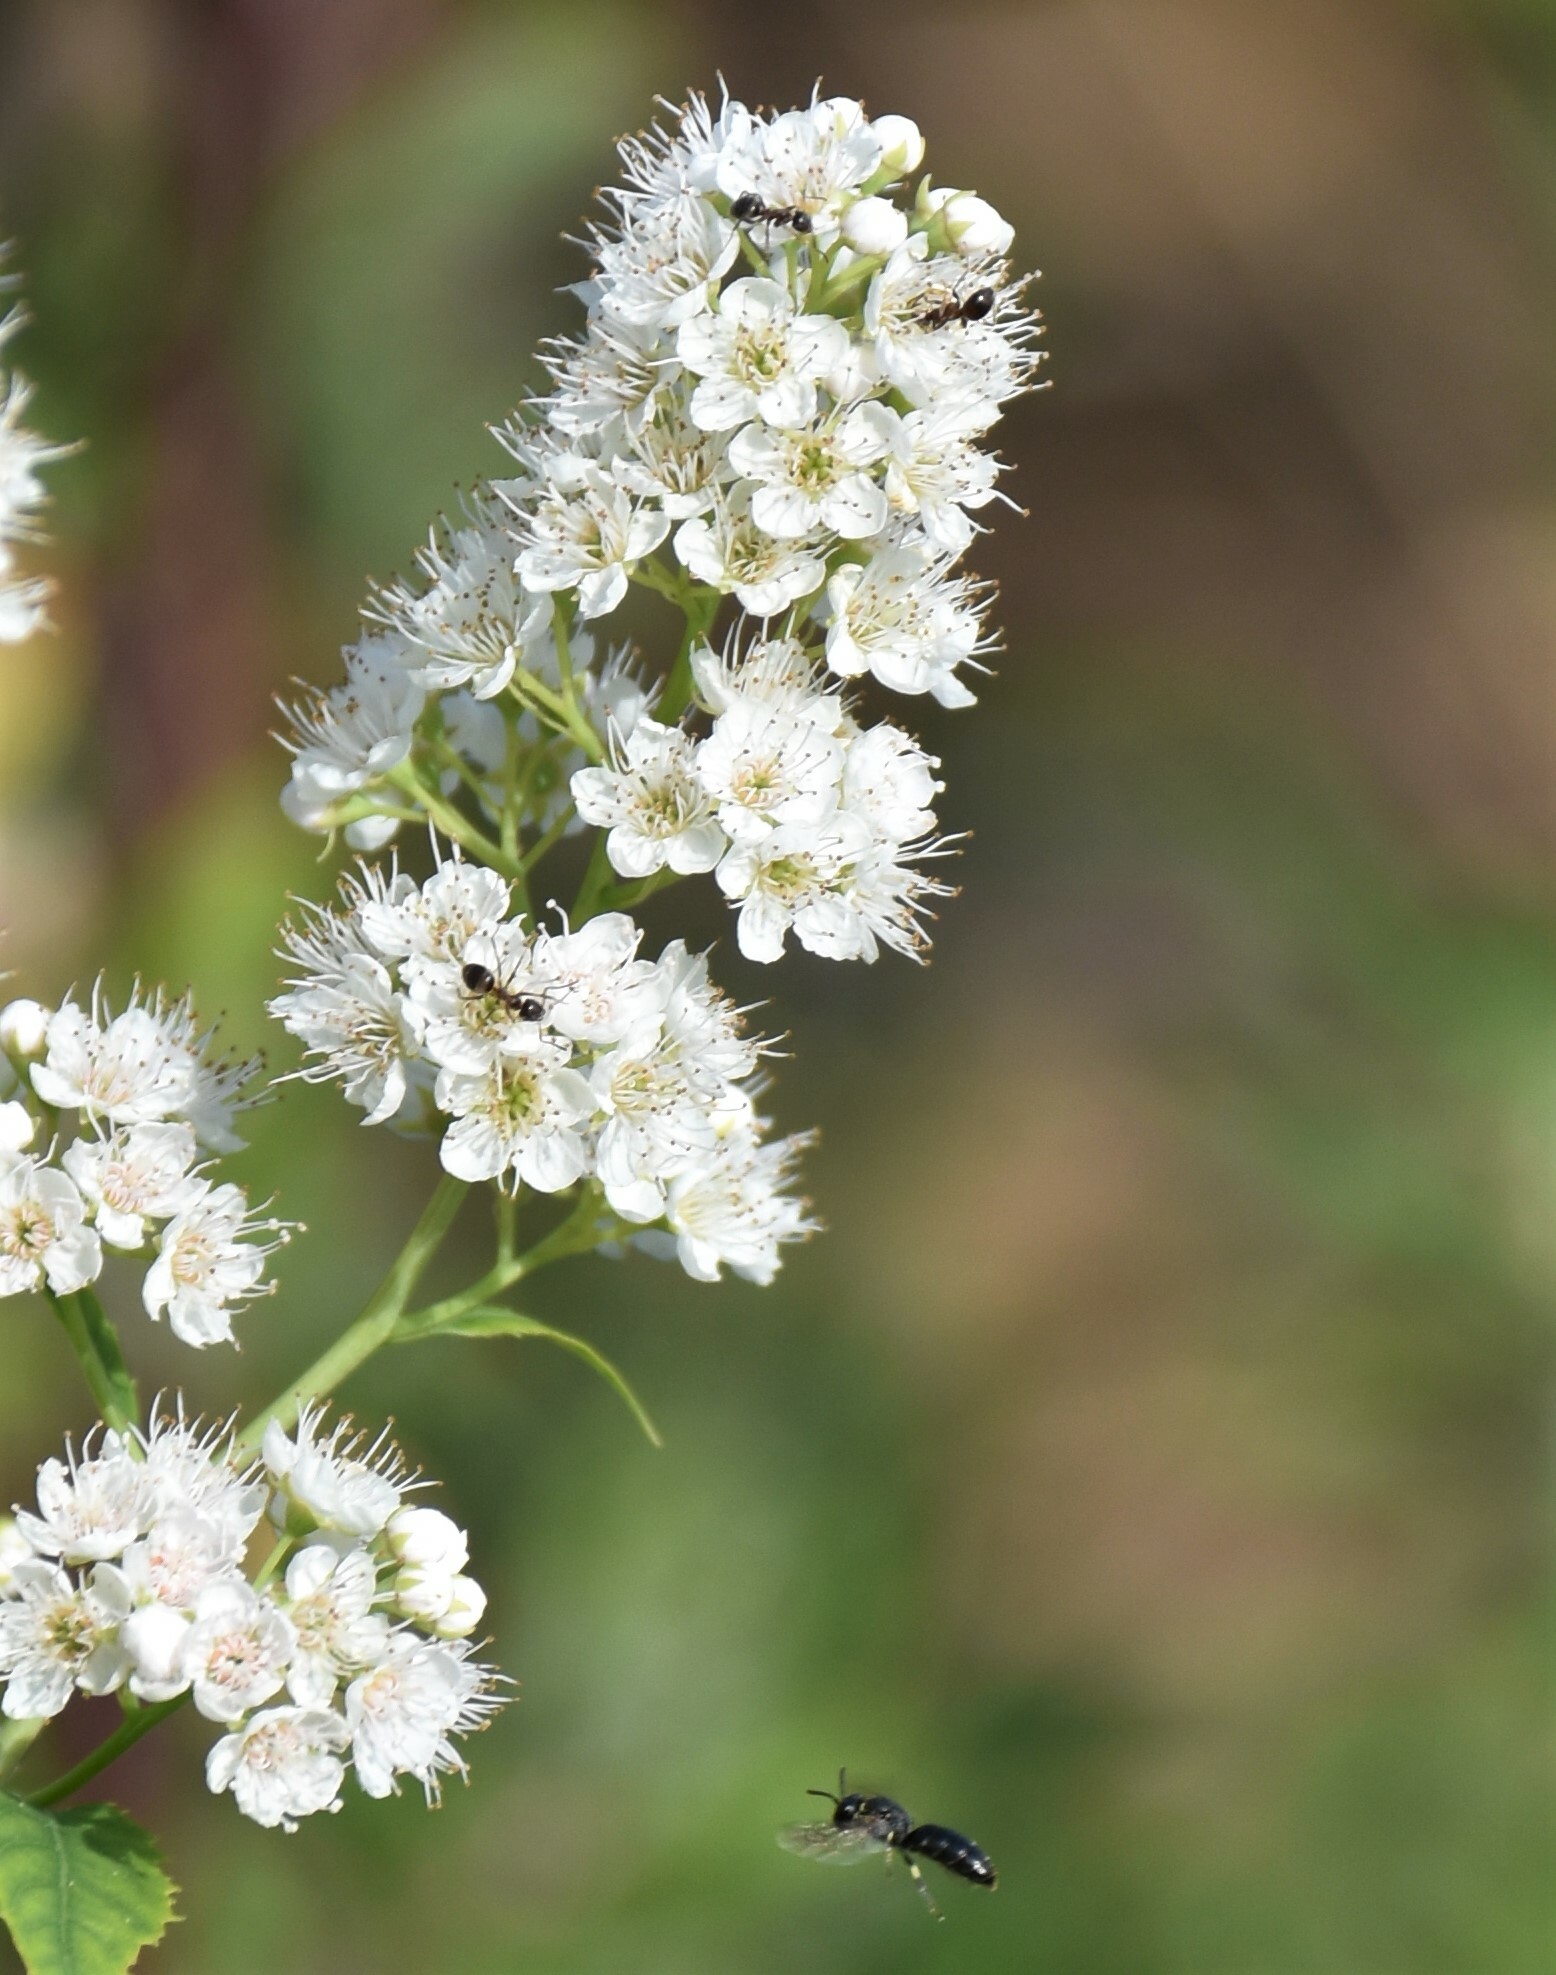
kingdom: Plantae
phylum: Tracheophyta
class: Magnoliopsida
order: Rosales
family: Rosaceae
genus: Spiraea
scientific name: Spiraea alba
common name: Pale bridewort
